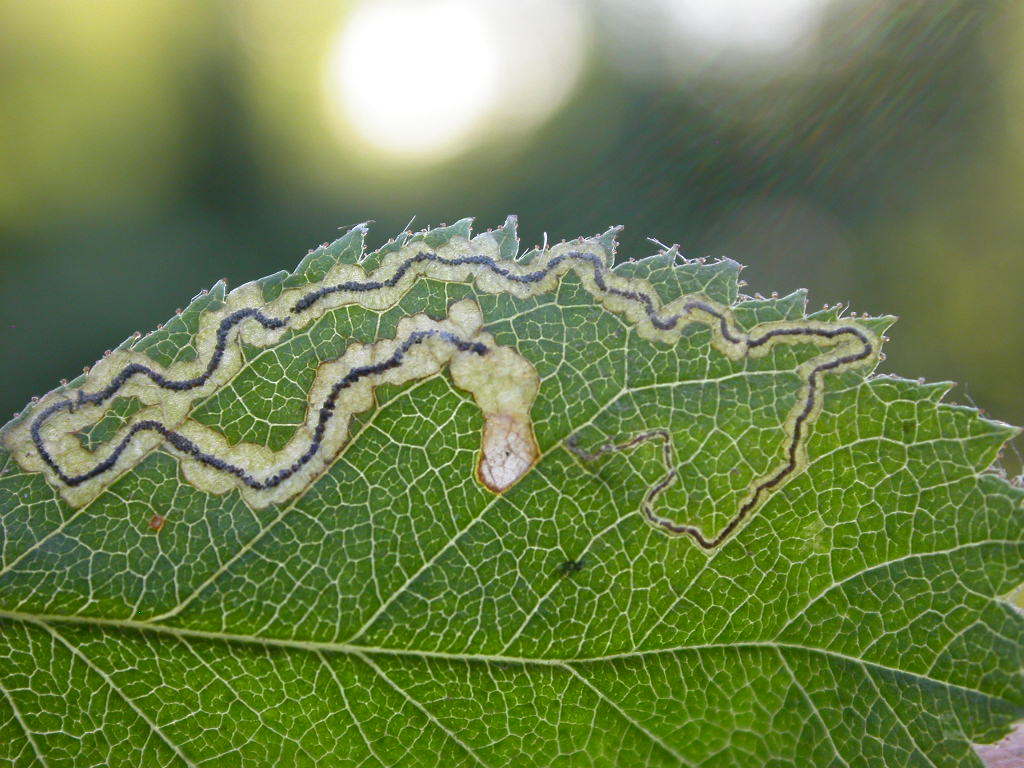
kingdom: Animalia
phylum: Arthropoda
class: Insecta
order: Lepidoptera
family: Nepticulidae
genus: Stigmella
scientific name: Stigmella splendidissimella
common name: Glossy bramble pigmy
